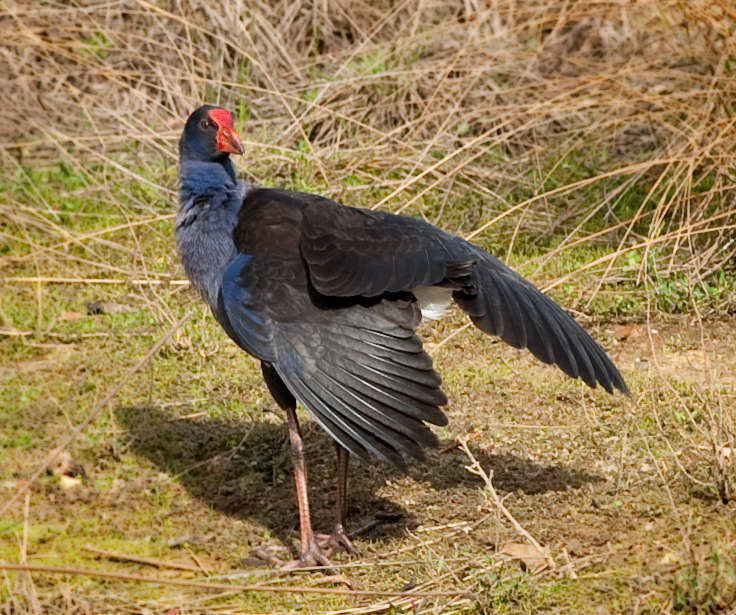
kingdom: Animalia
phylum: Chordata
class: Aves
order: Gruiformes
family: Rallidae
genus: Porphyrio
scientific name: Porphyrio melanotus
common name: Australasian swamphen
